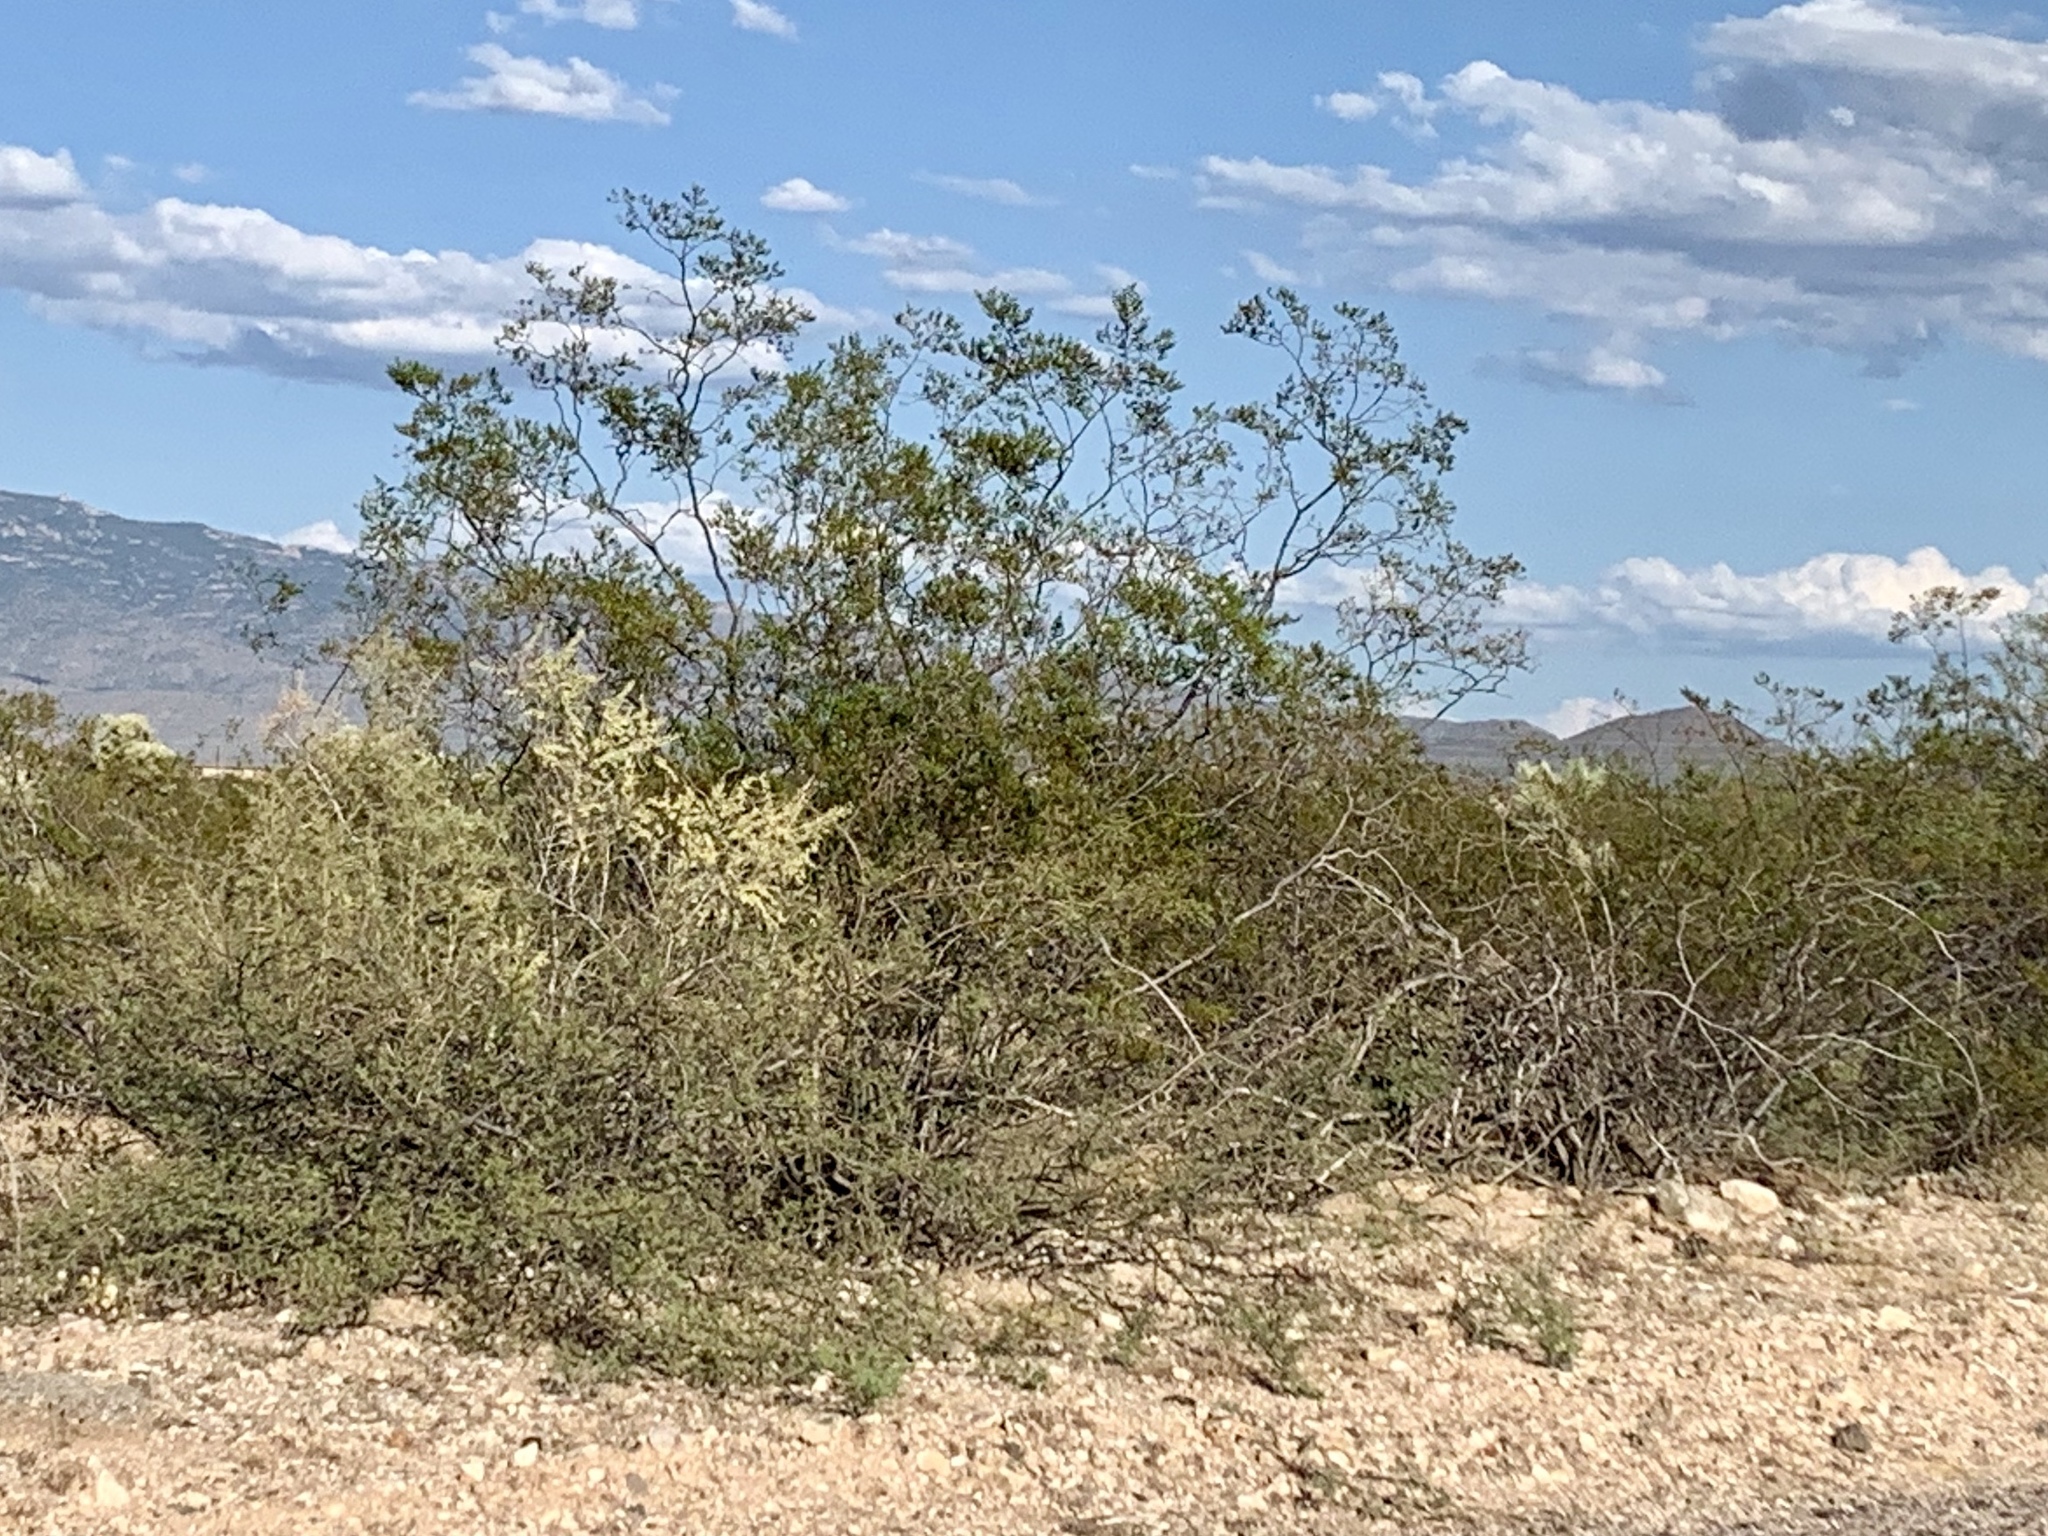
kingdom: Plantae
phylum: Tracheophyta
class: Magnoliopsida
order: Zygophyllales
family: Zygophyllaceae
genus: Larrea
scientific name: Larrea tridentata
